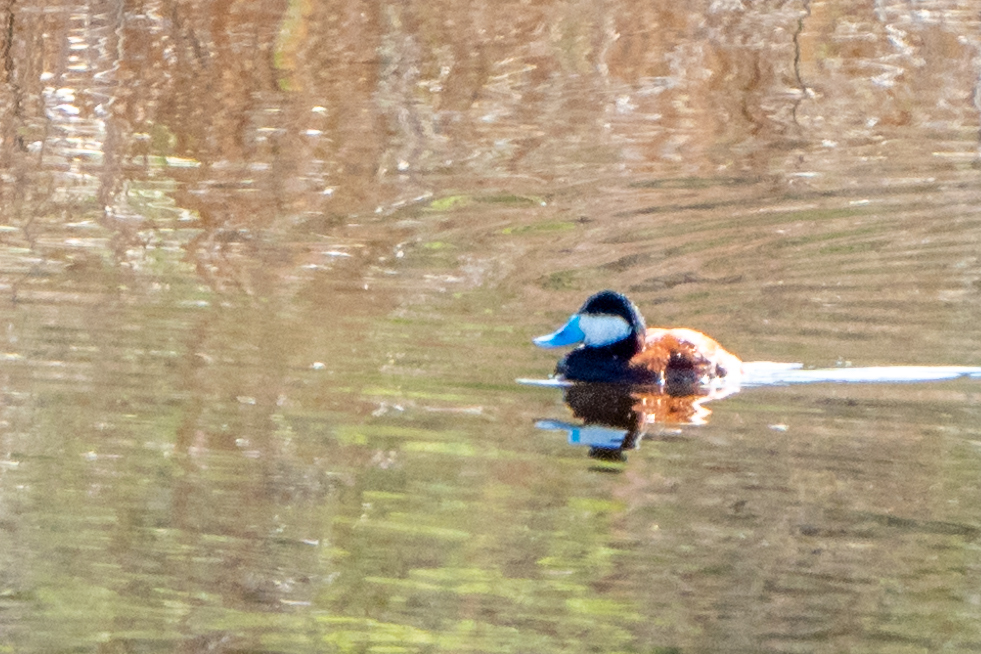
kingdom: Animalia
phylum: Chordata
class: Aves
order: Anseriformes
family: Anatidae
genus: Oxyura
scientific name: Oxyura jamaicensis
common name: Ruddy duck
